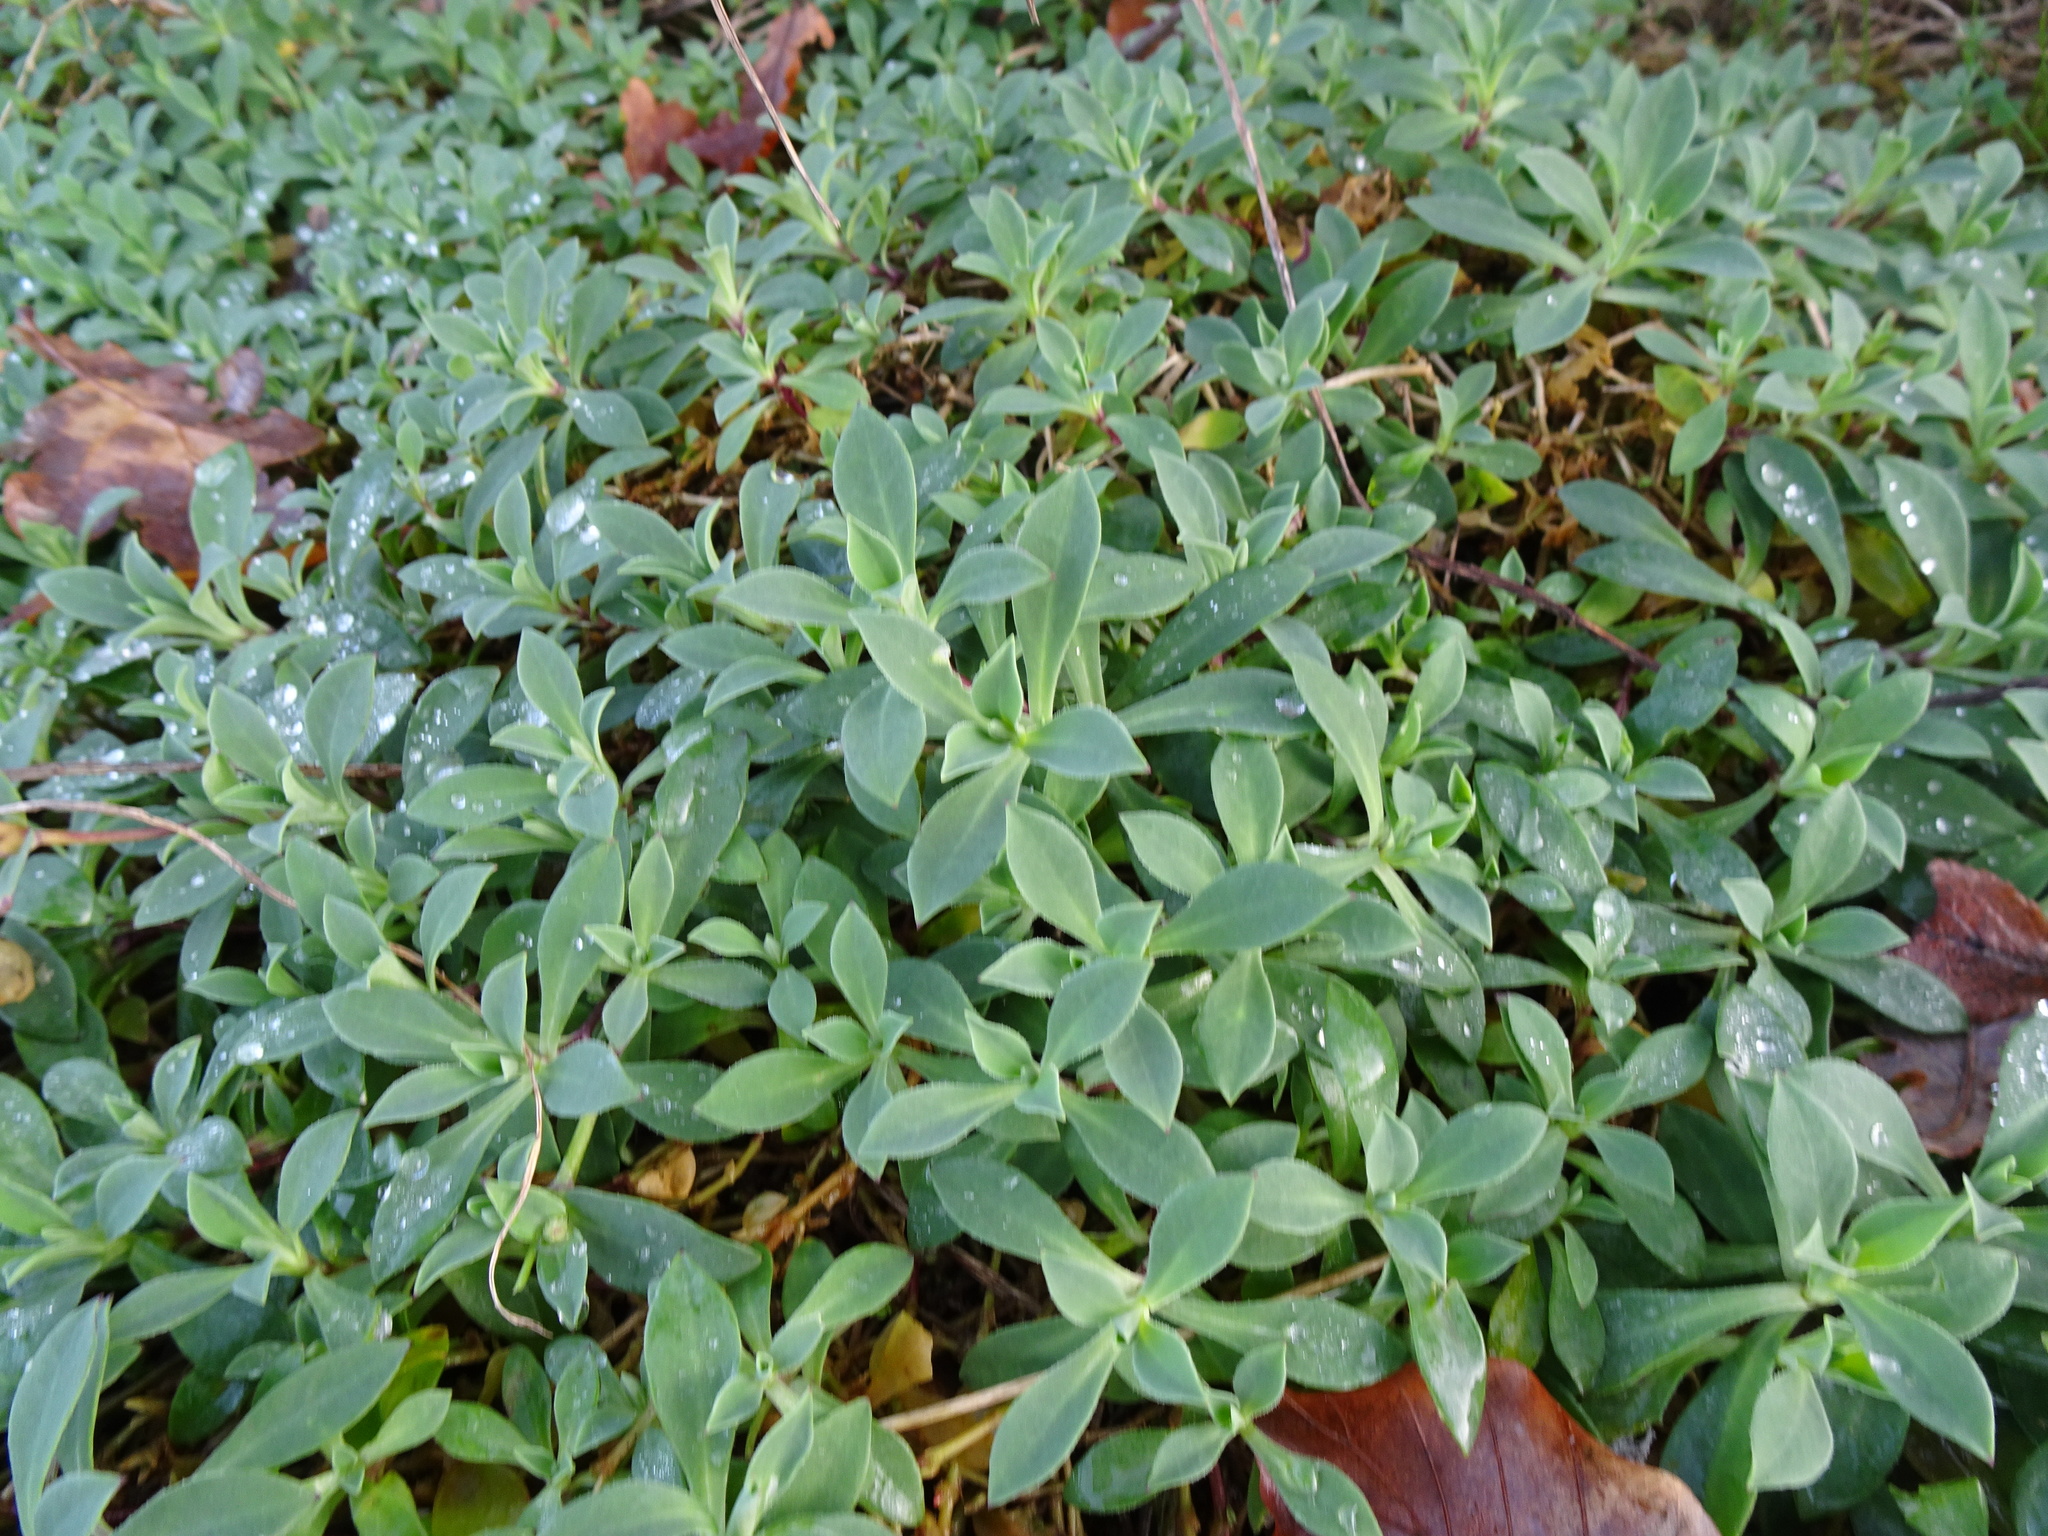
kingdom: Plantae
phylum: Tracheophyta
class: Magnoliopsida
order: Caryophyllales
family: Caryophyllaceae
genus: Silene
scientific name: Silene uniflora
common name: Sea campion
